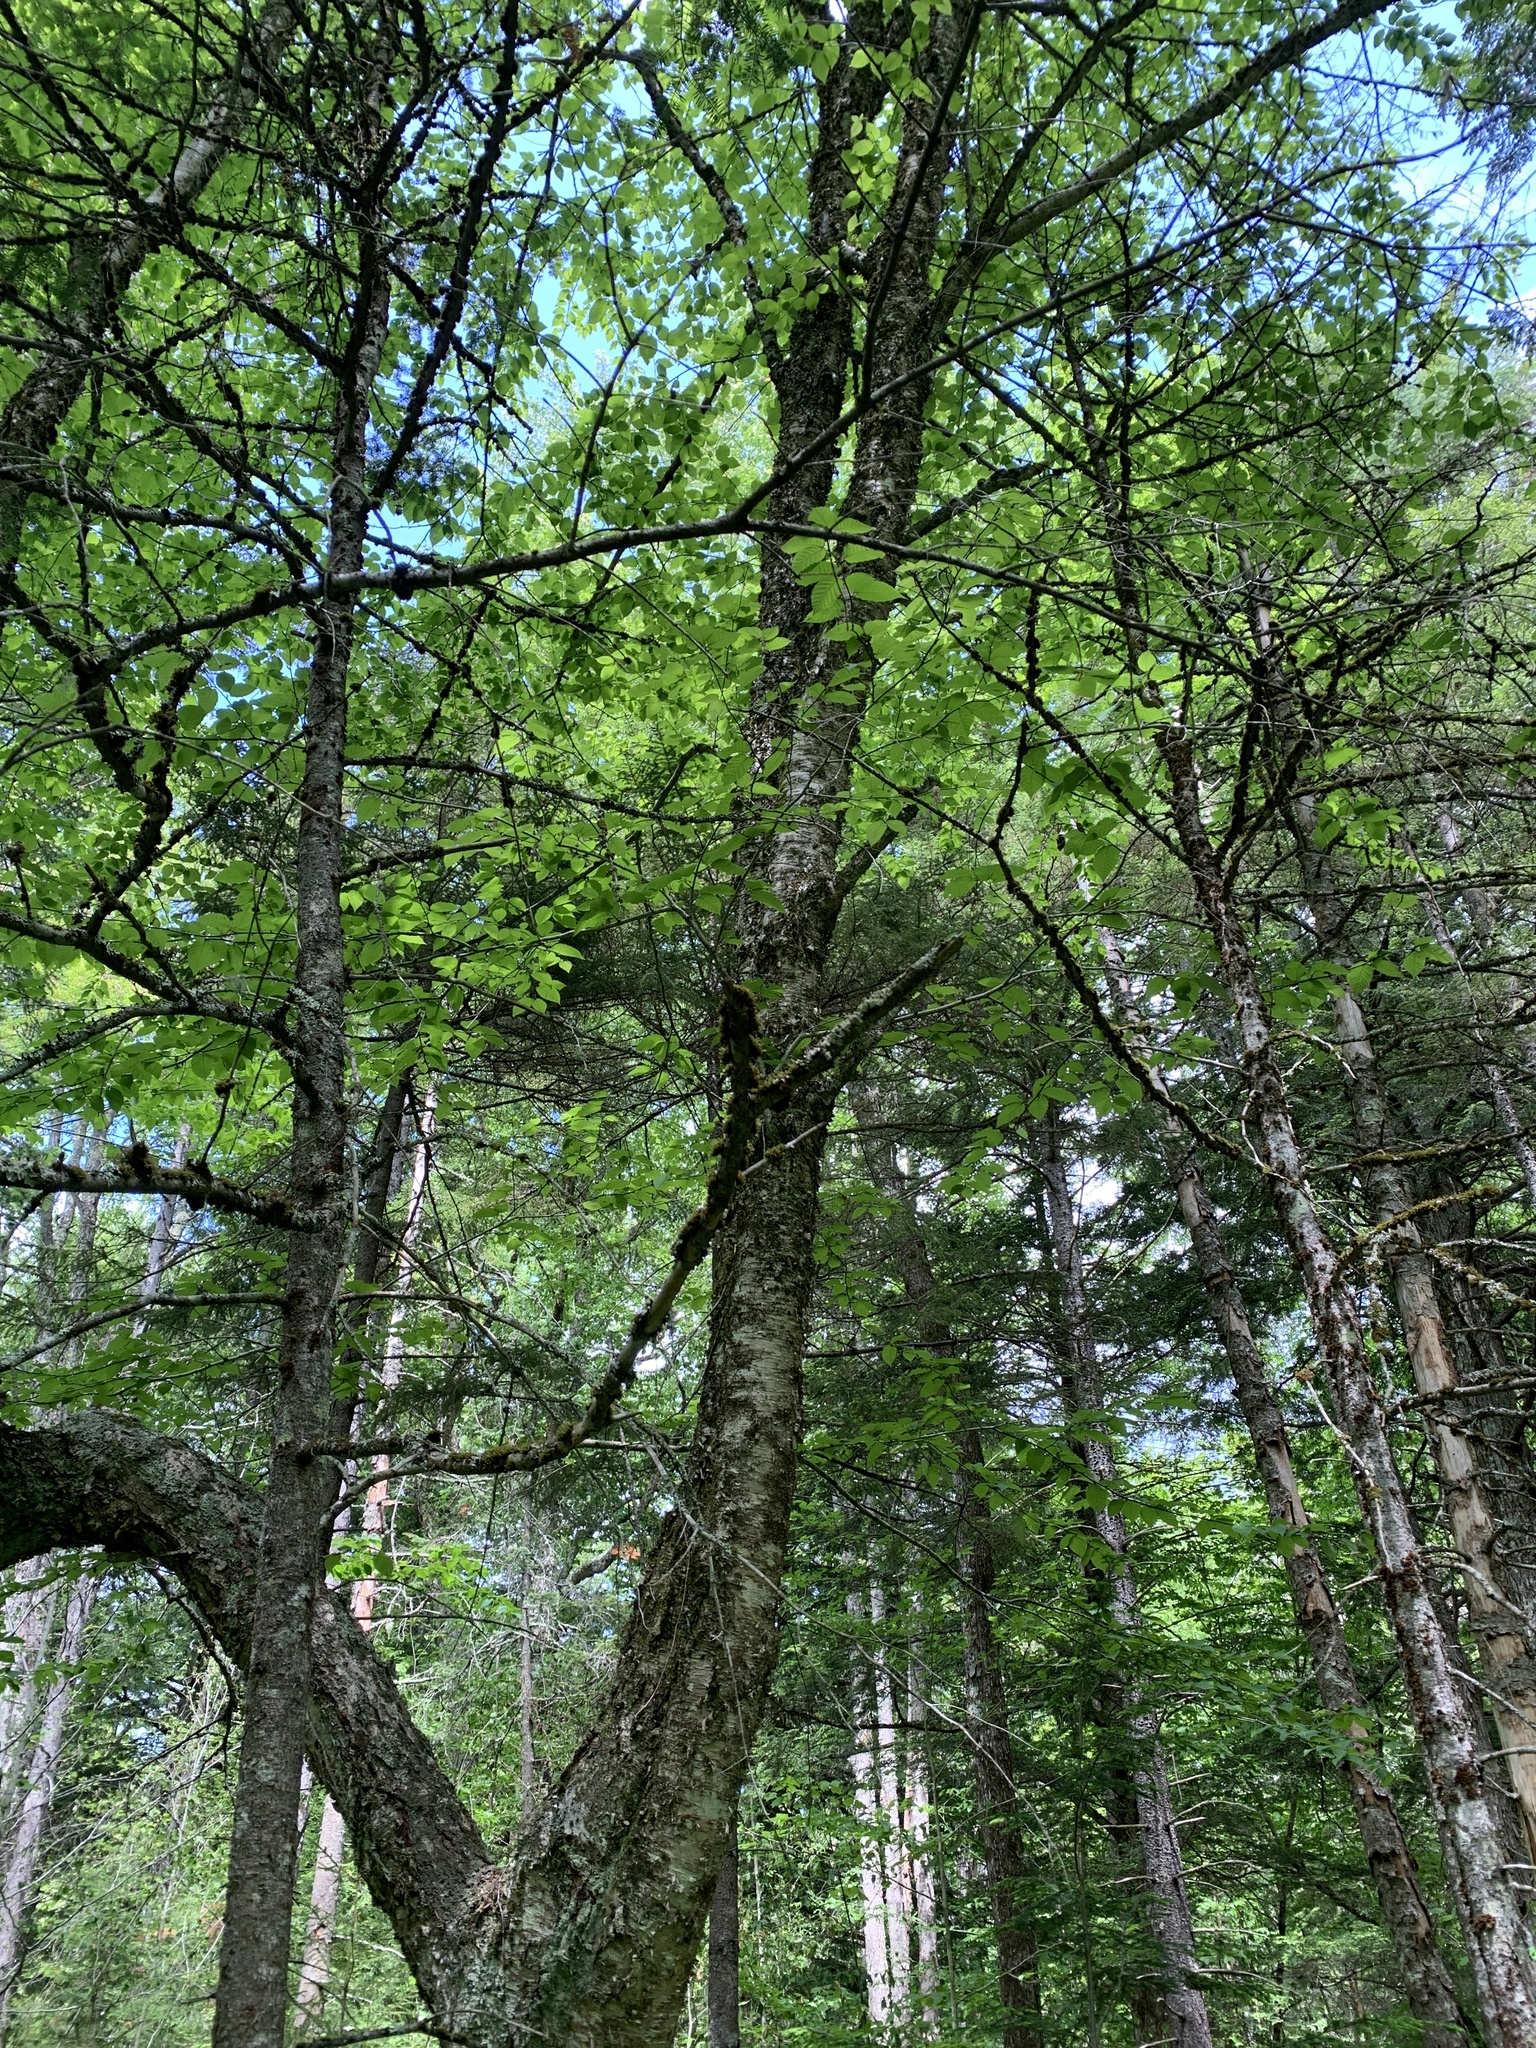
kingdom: Plantae
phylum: Tracheophyta
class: Magnoliopsida
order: Fagales
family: Betulaceae
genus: Betula
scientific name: Betula alleghaniensis
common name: Yellow birch
